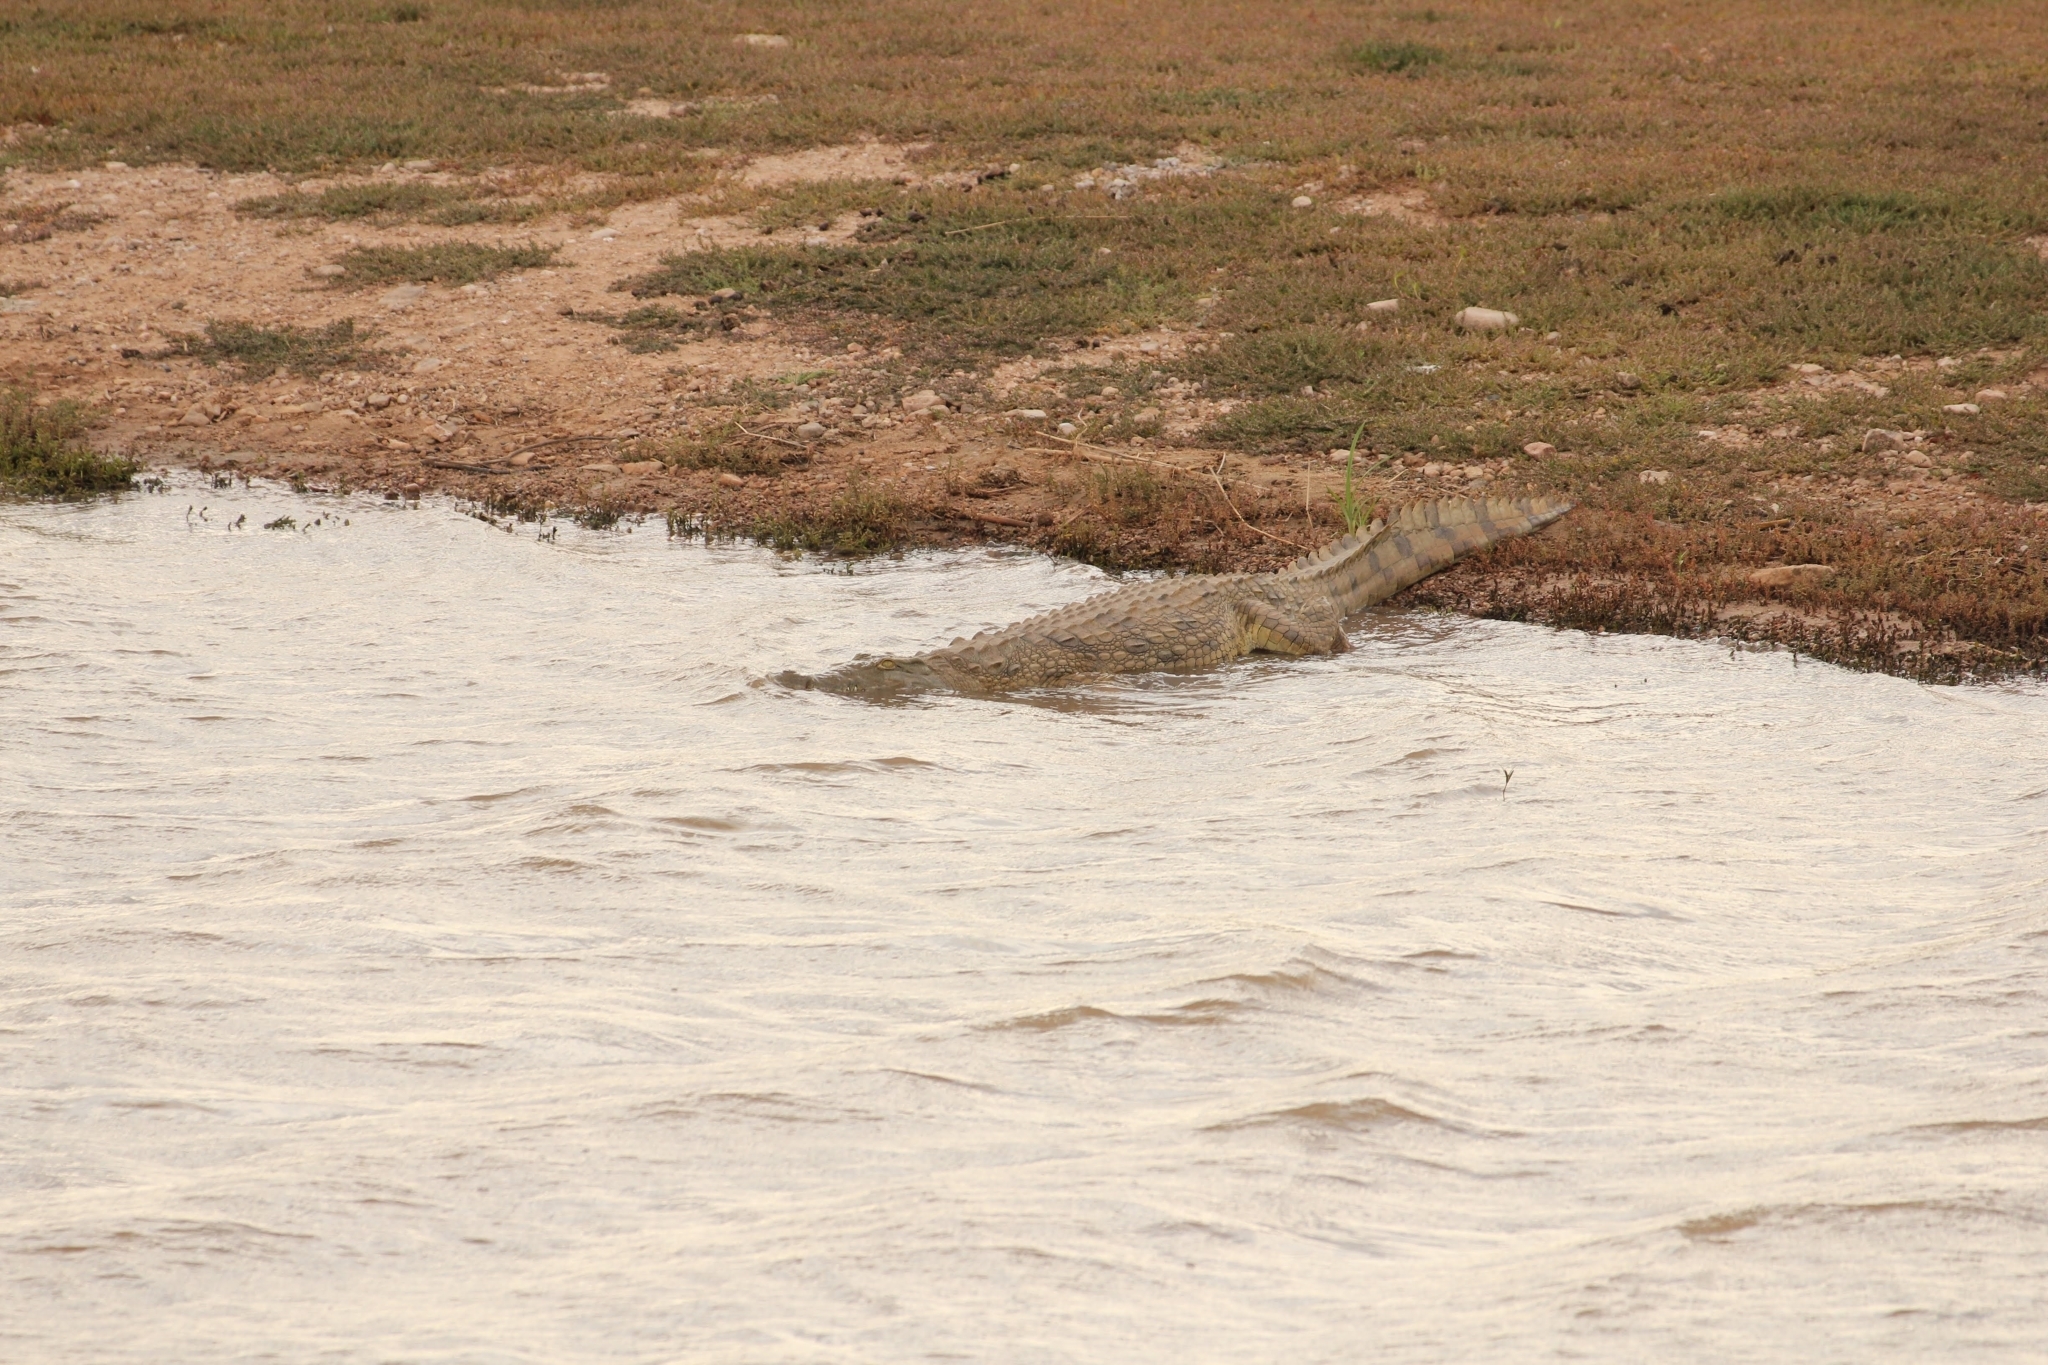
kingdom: Animalia
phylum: Chordata
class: Crocodylia
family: Crocodylidae
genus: Crocodylus
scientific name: Crocodylus niloticus
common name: Nile crocodile
